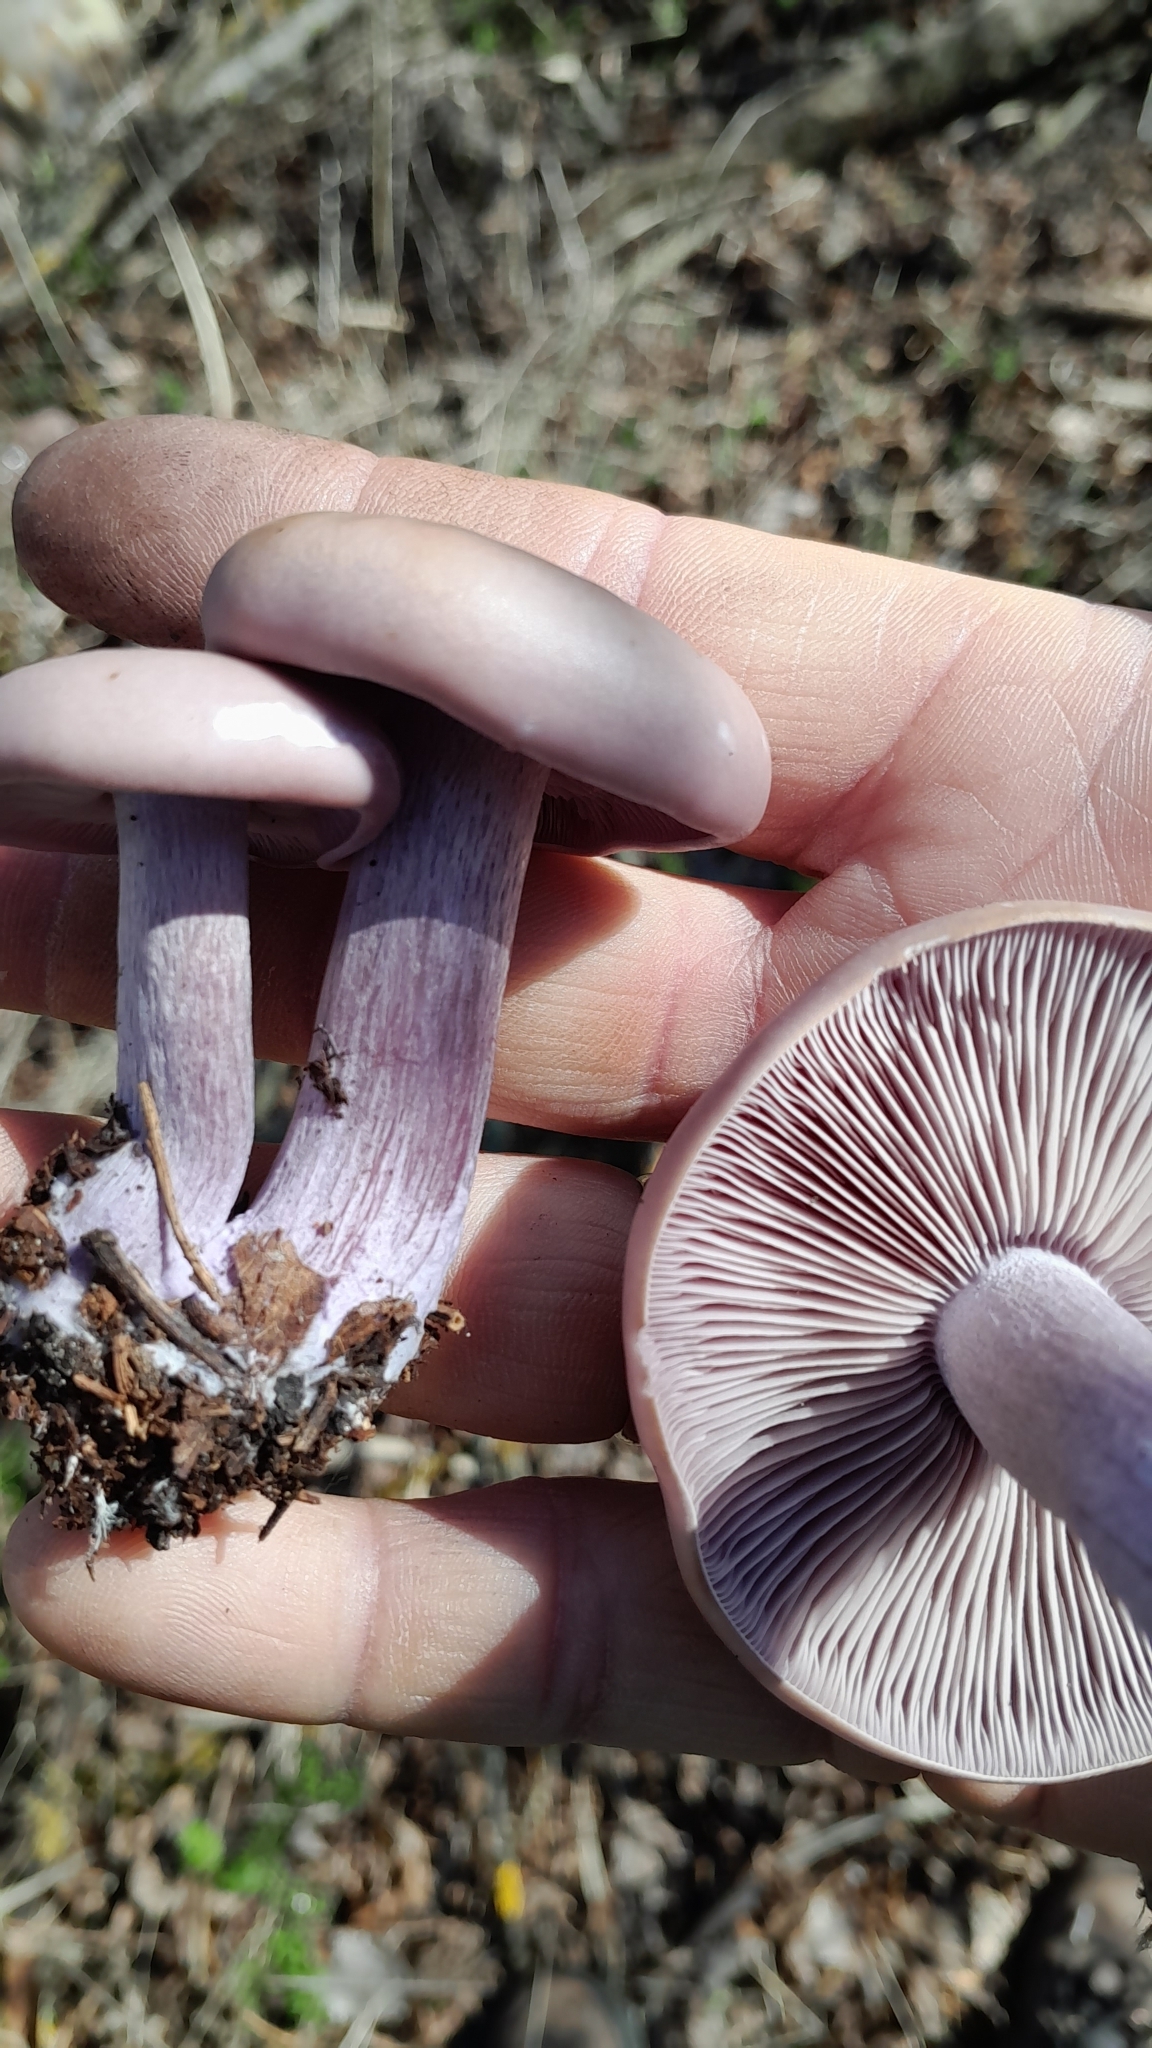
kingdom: Fungi
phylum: Basidiomycota
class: Agaricomycetes
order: Agaricales
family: Tricholomataceae
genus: Collybia
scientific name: Collybia
